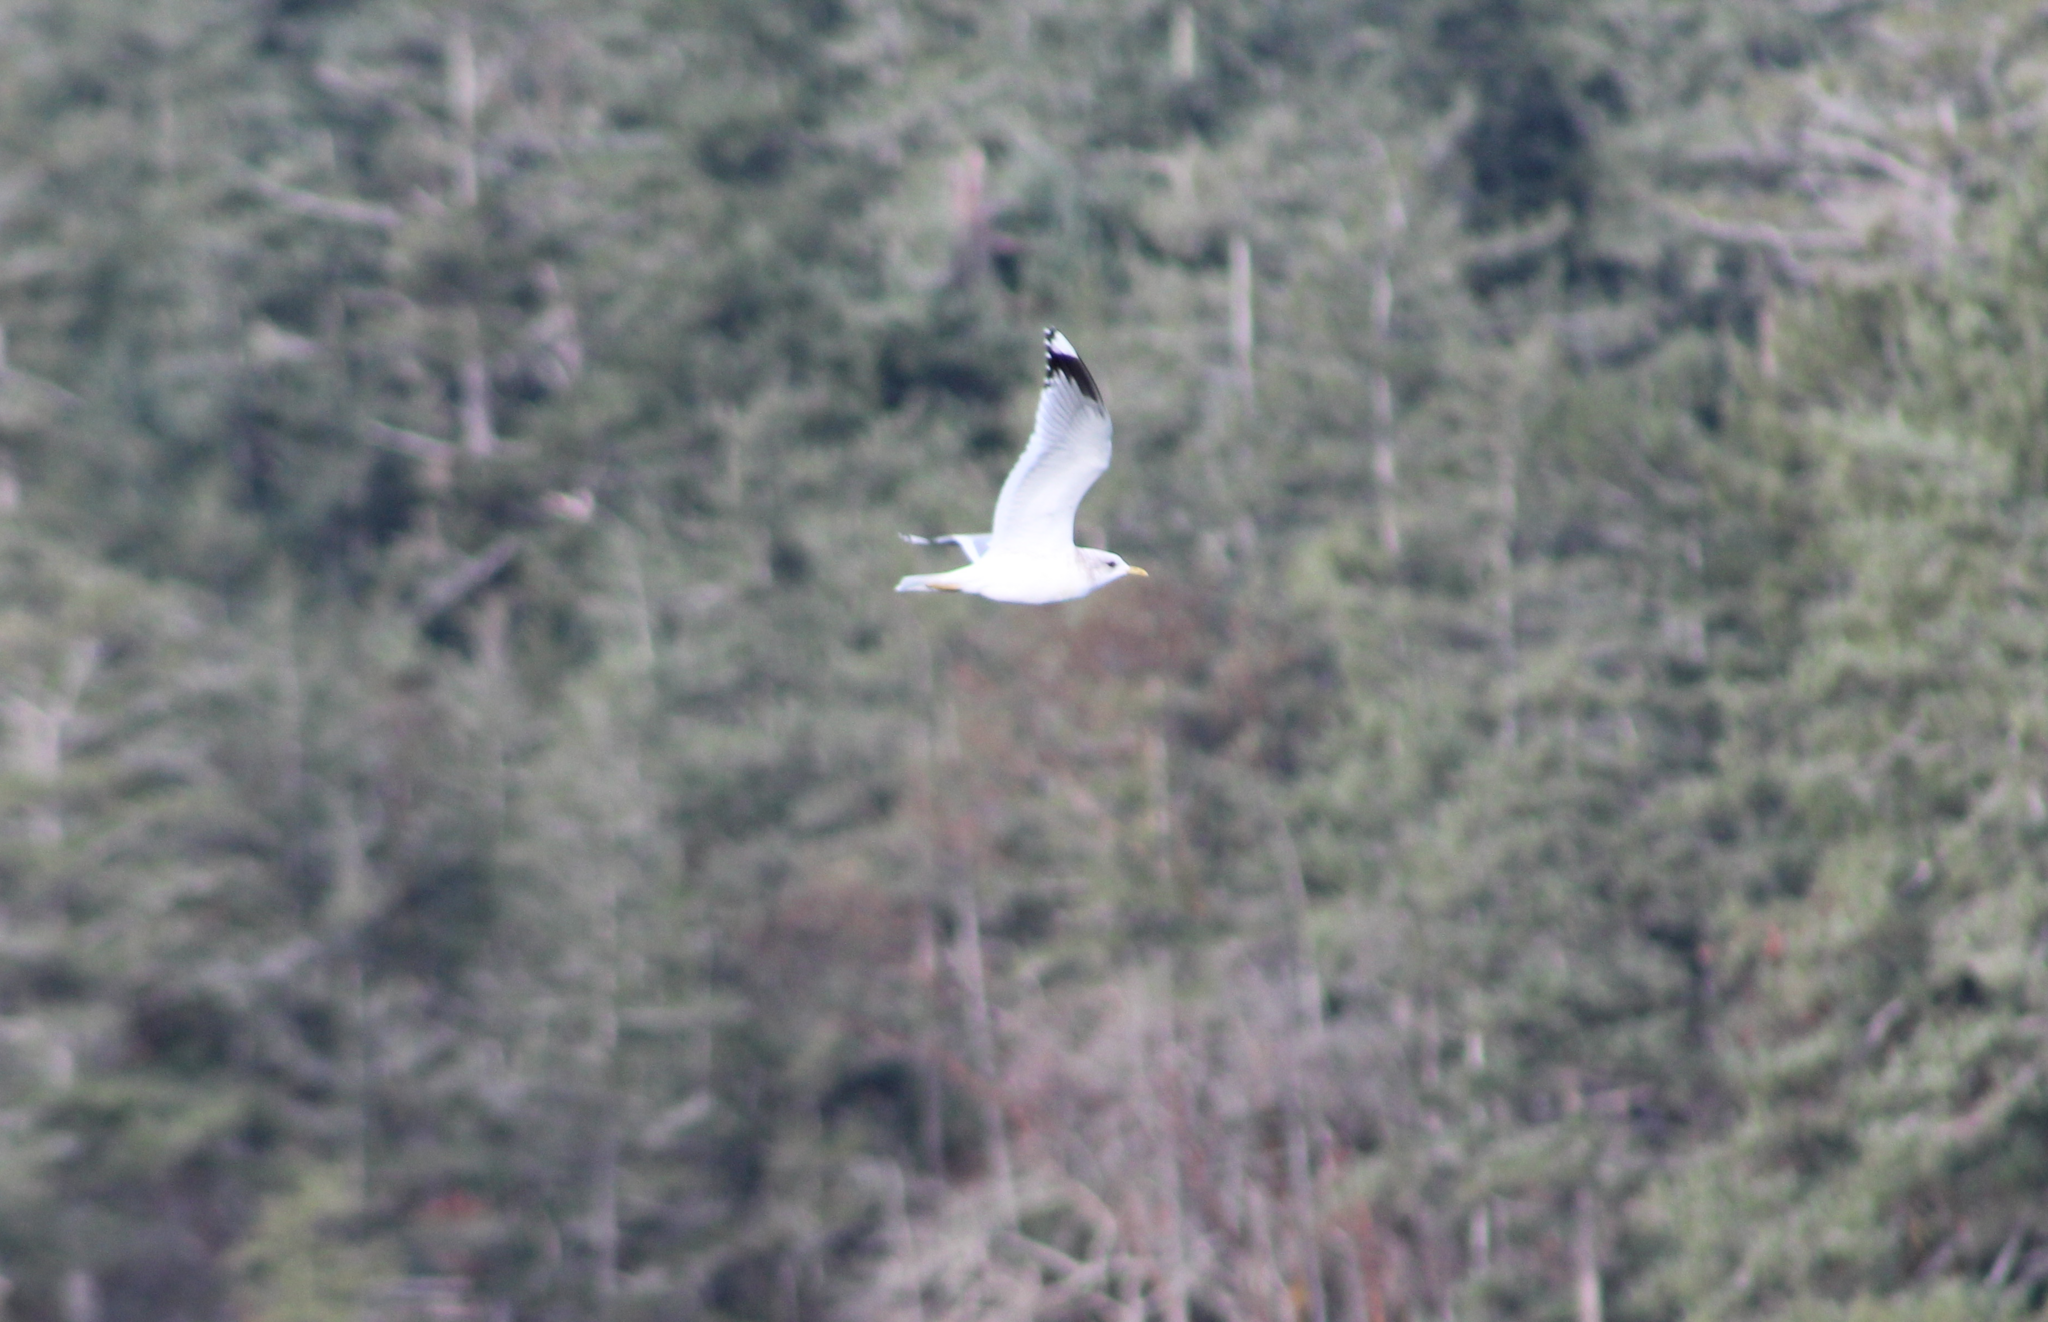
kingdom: Animalia
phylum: Chordata
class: Aves
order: Charadriiformes
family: Laridae
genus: Larus
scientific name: Larus brachyrhynchus
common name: Short-billed gull
